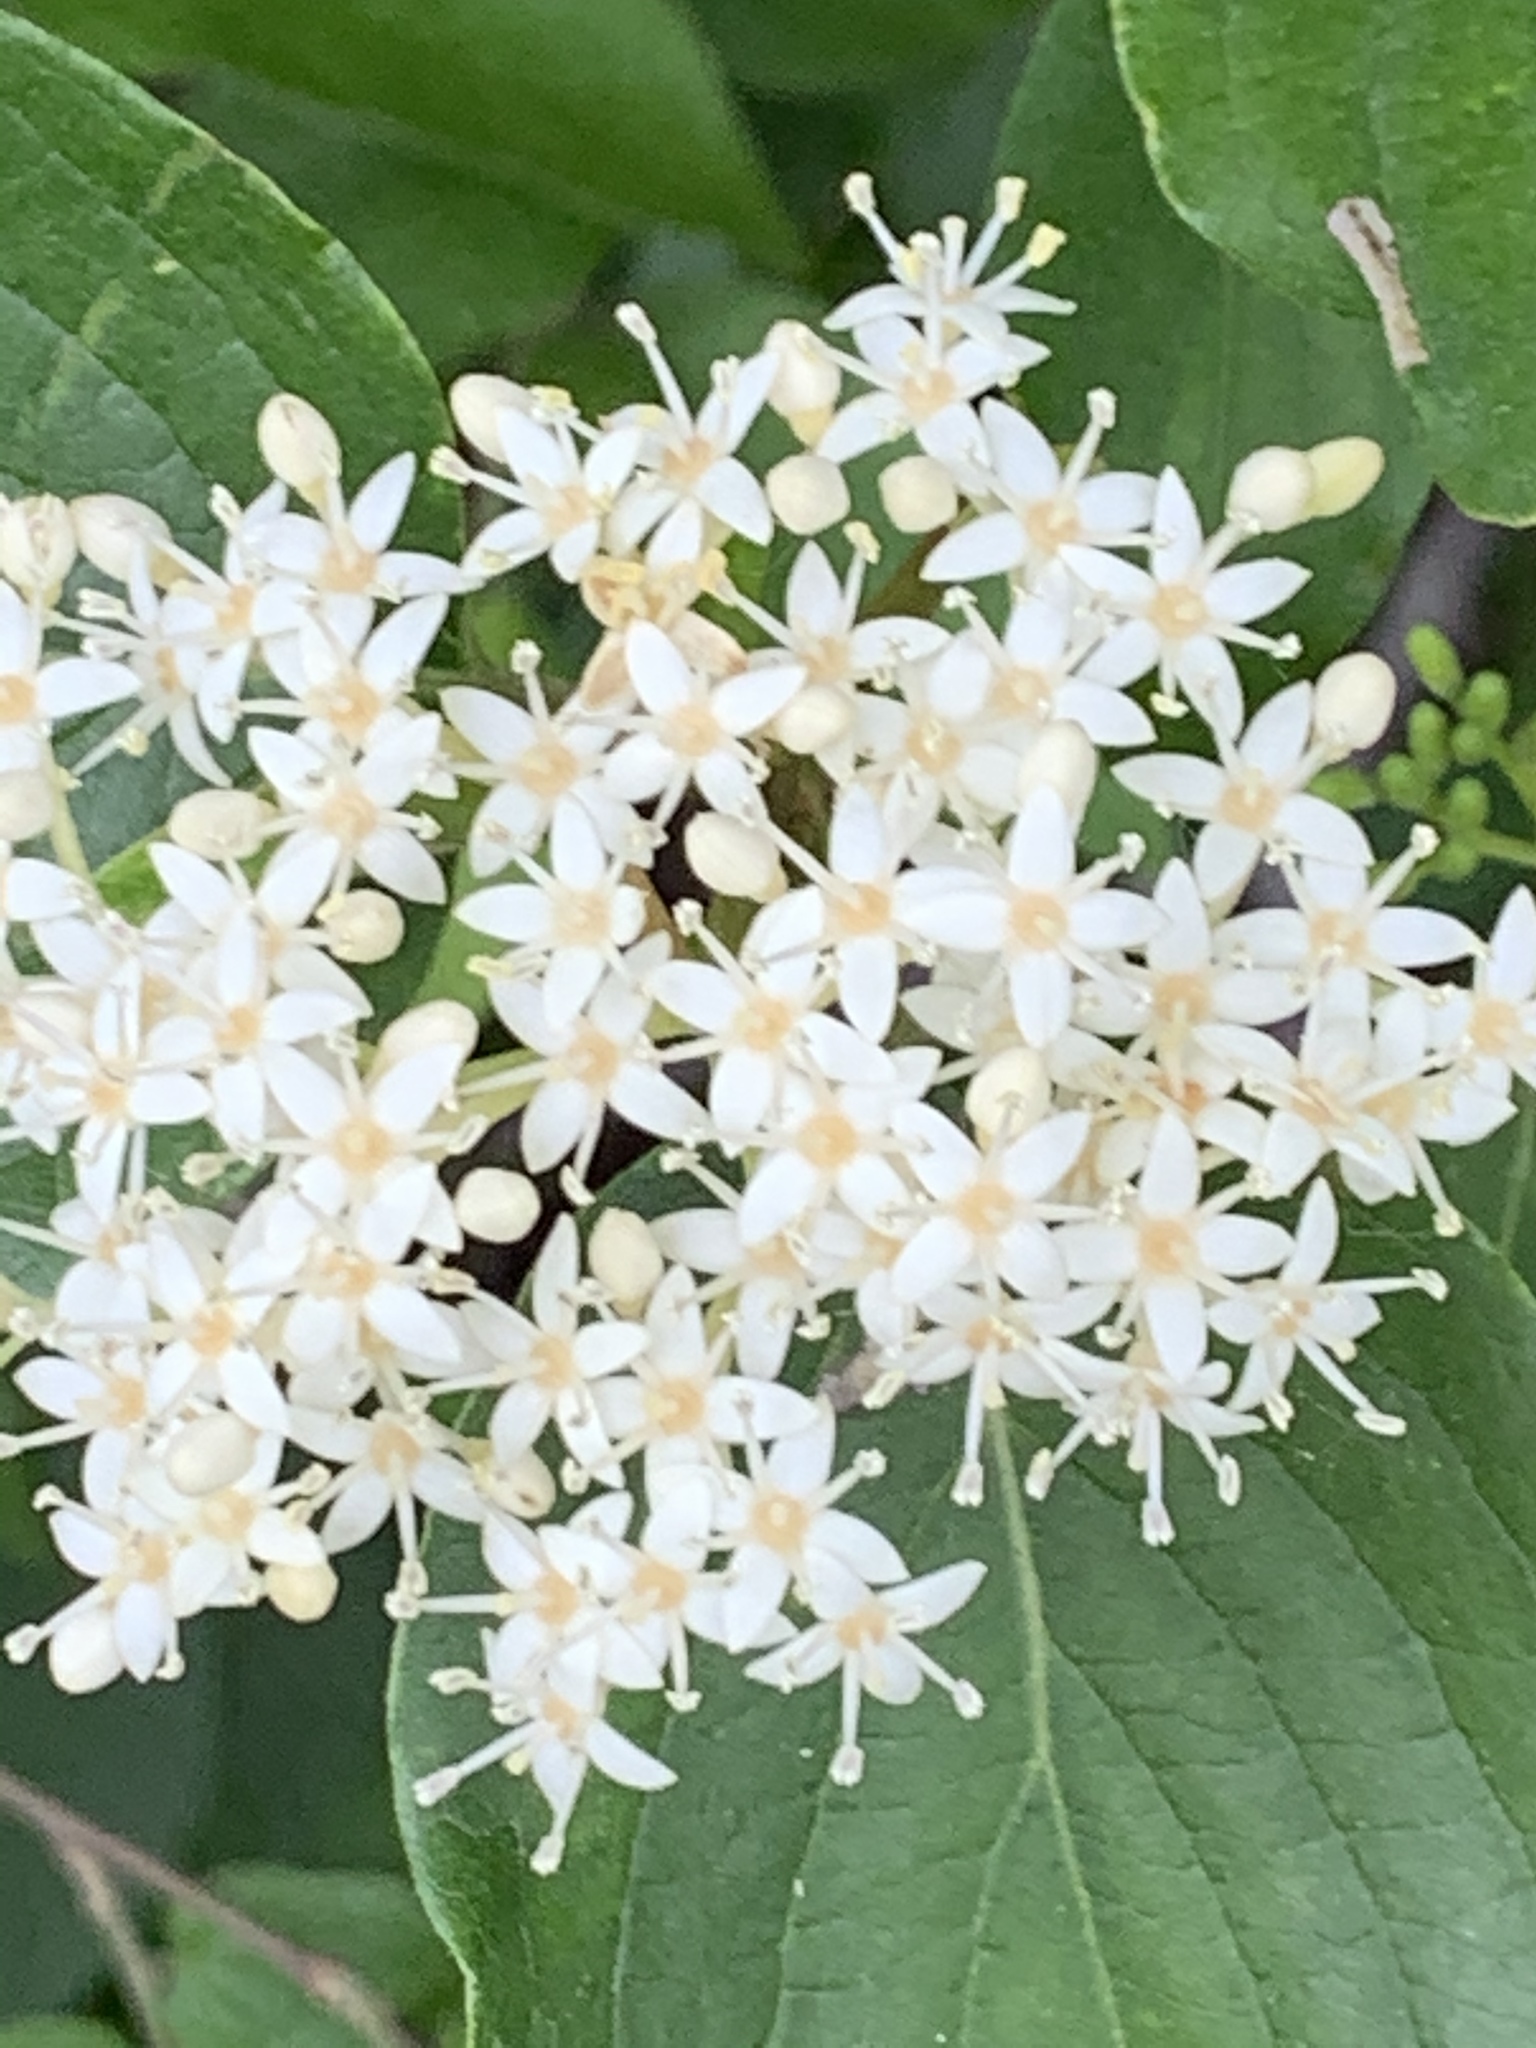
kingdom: Plantae
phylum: Tracheophyta
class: Magnoliopsida
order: Cornales
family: Cornaceae
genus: Cornus
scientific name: Cornus drummondii
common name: Rough-leaf dogwood
